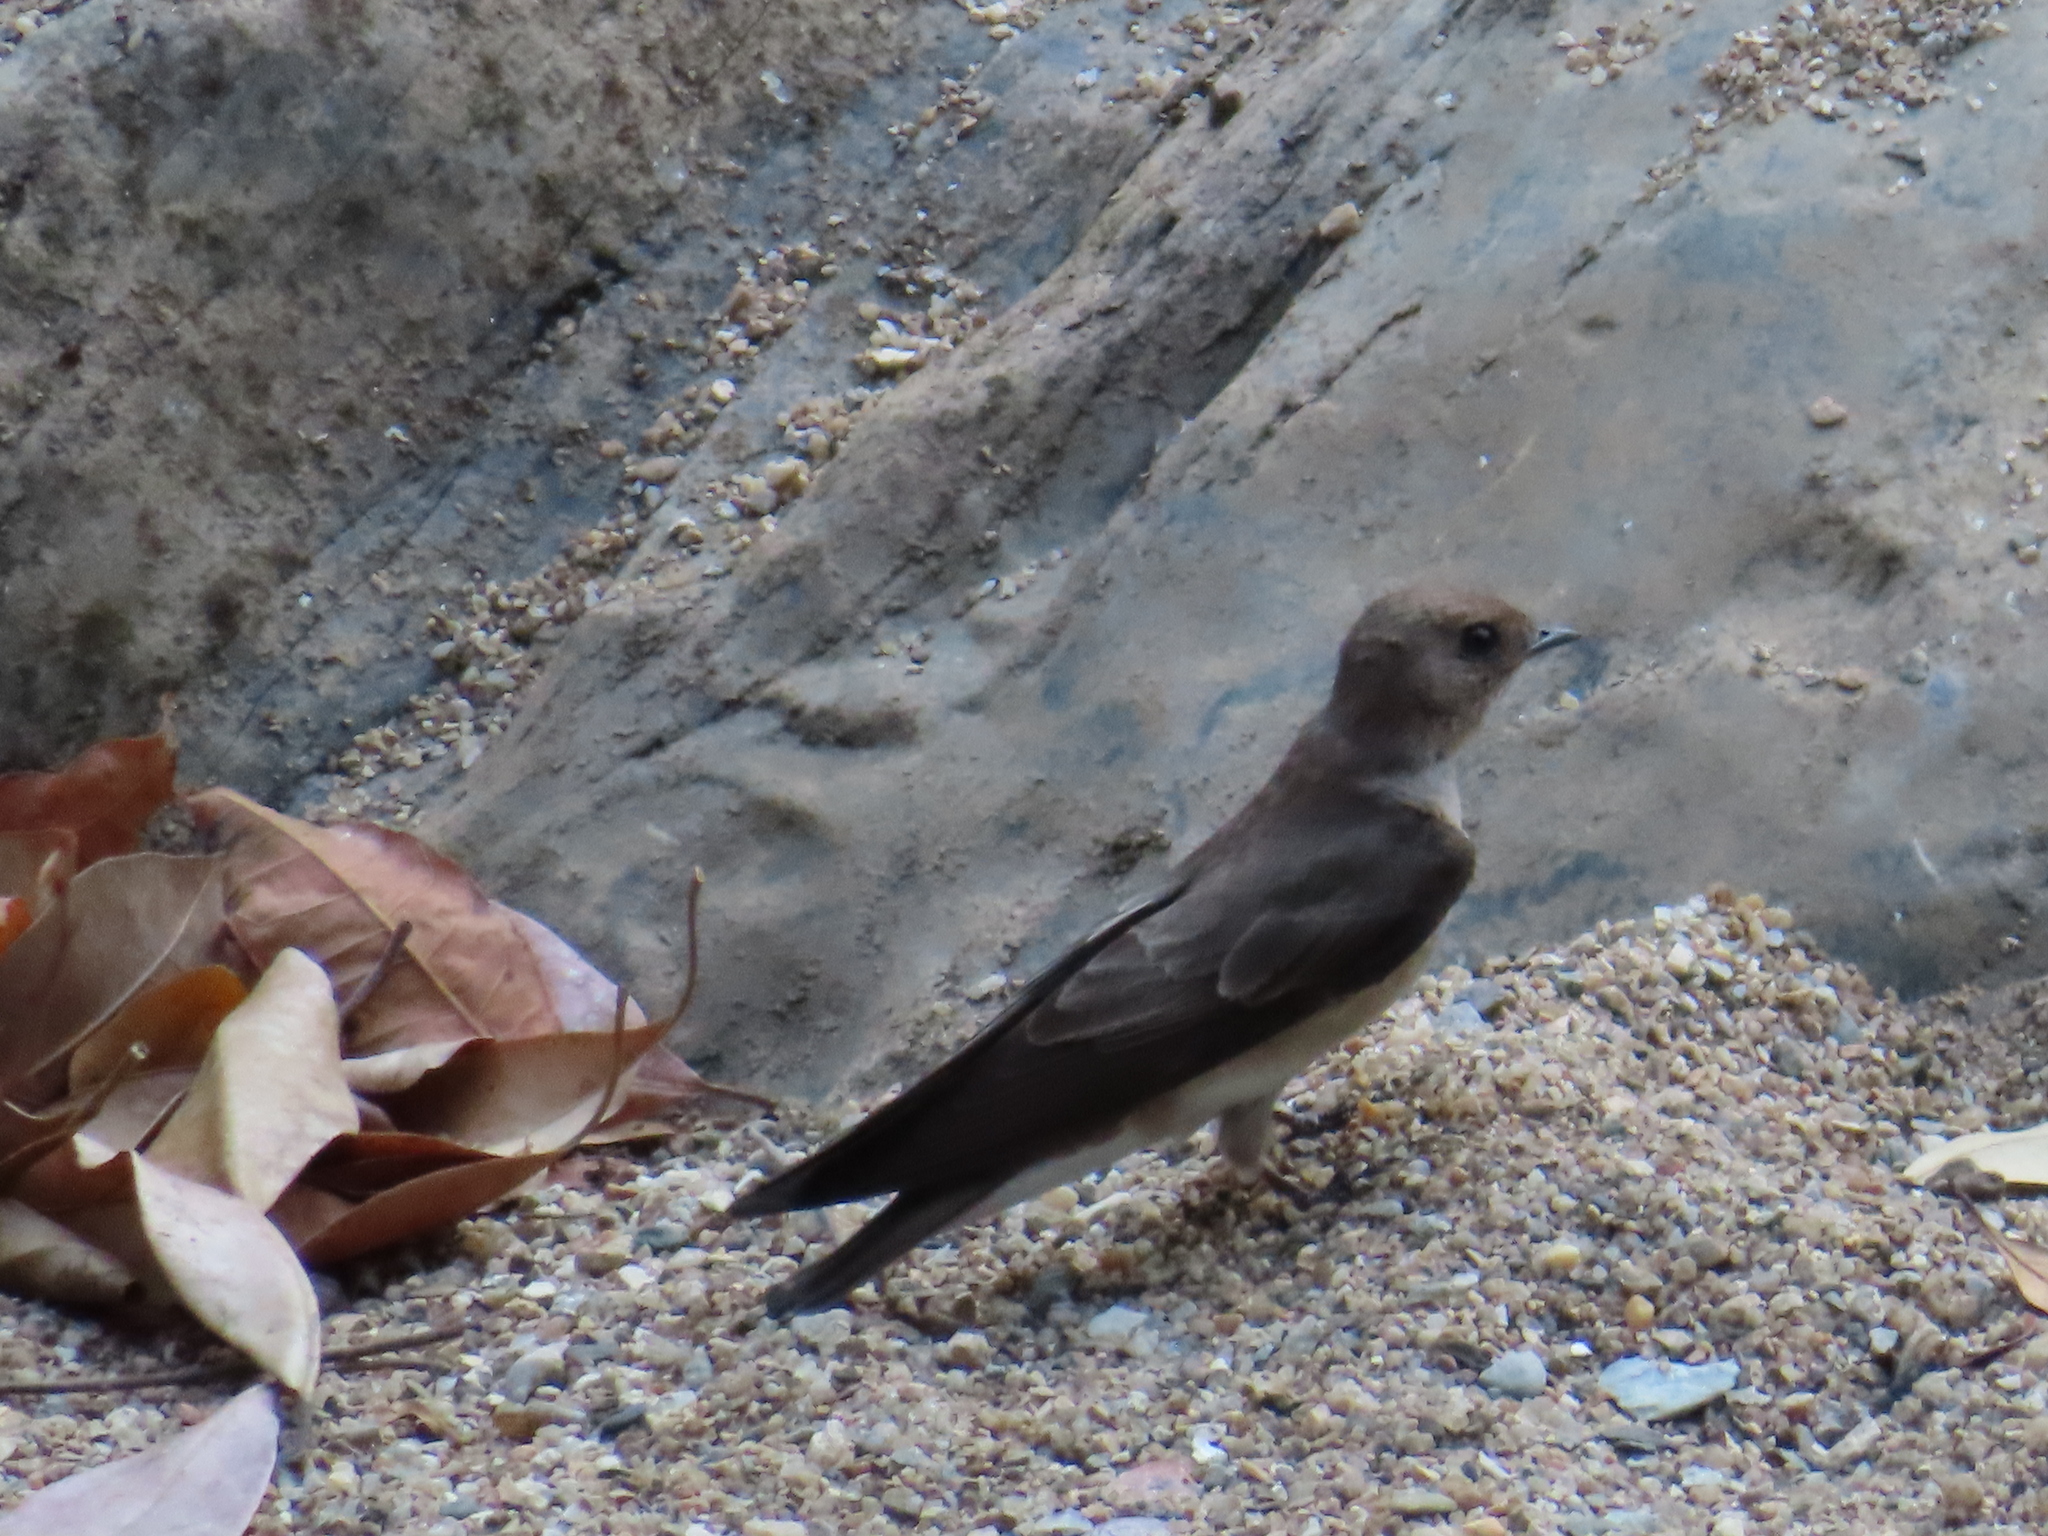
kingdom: Animalia
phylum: Chordata
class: Aves
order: Passeriformes
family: Hirundinidae
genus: Stelgidopteryx
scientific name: Stelgidopteryx serripennis
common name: Northern rough-winged swallow
